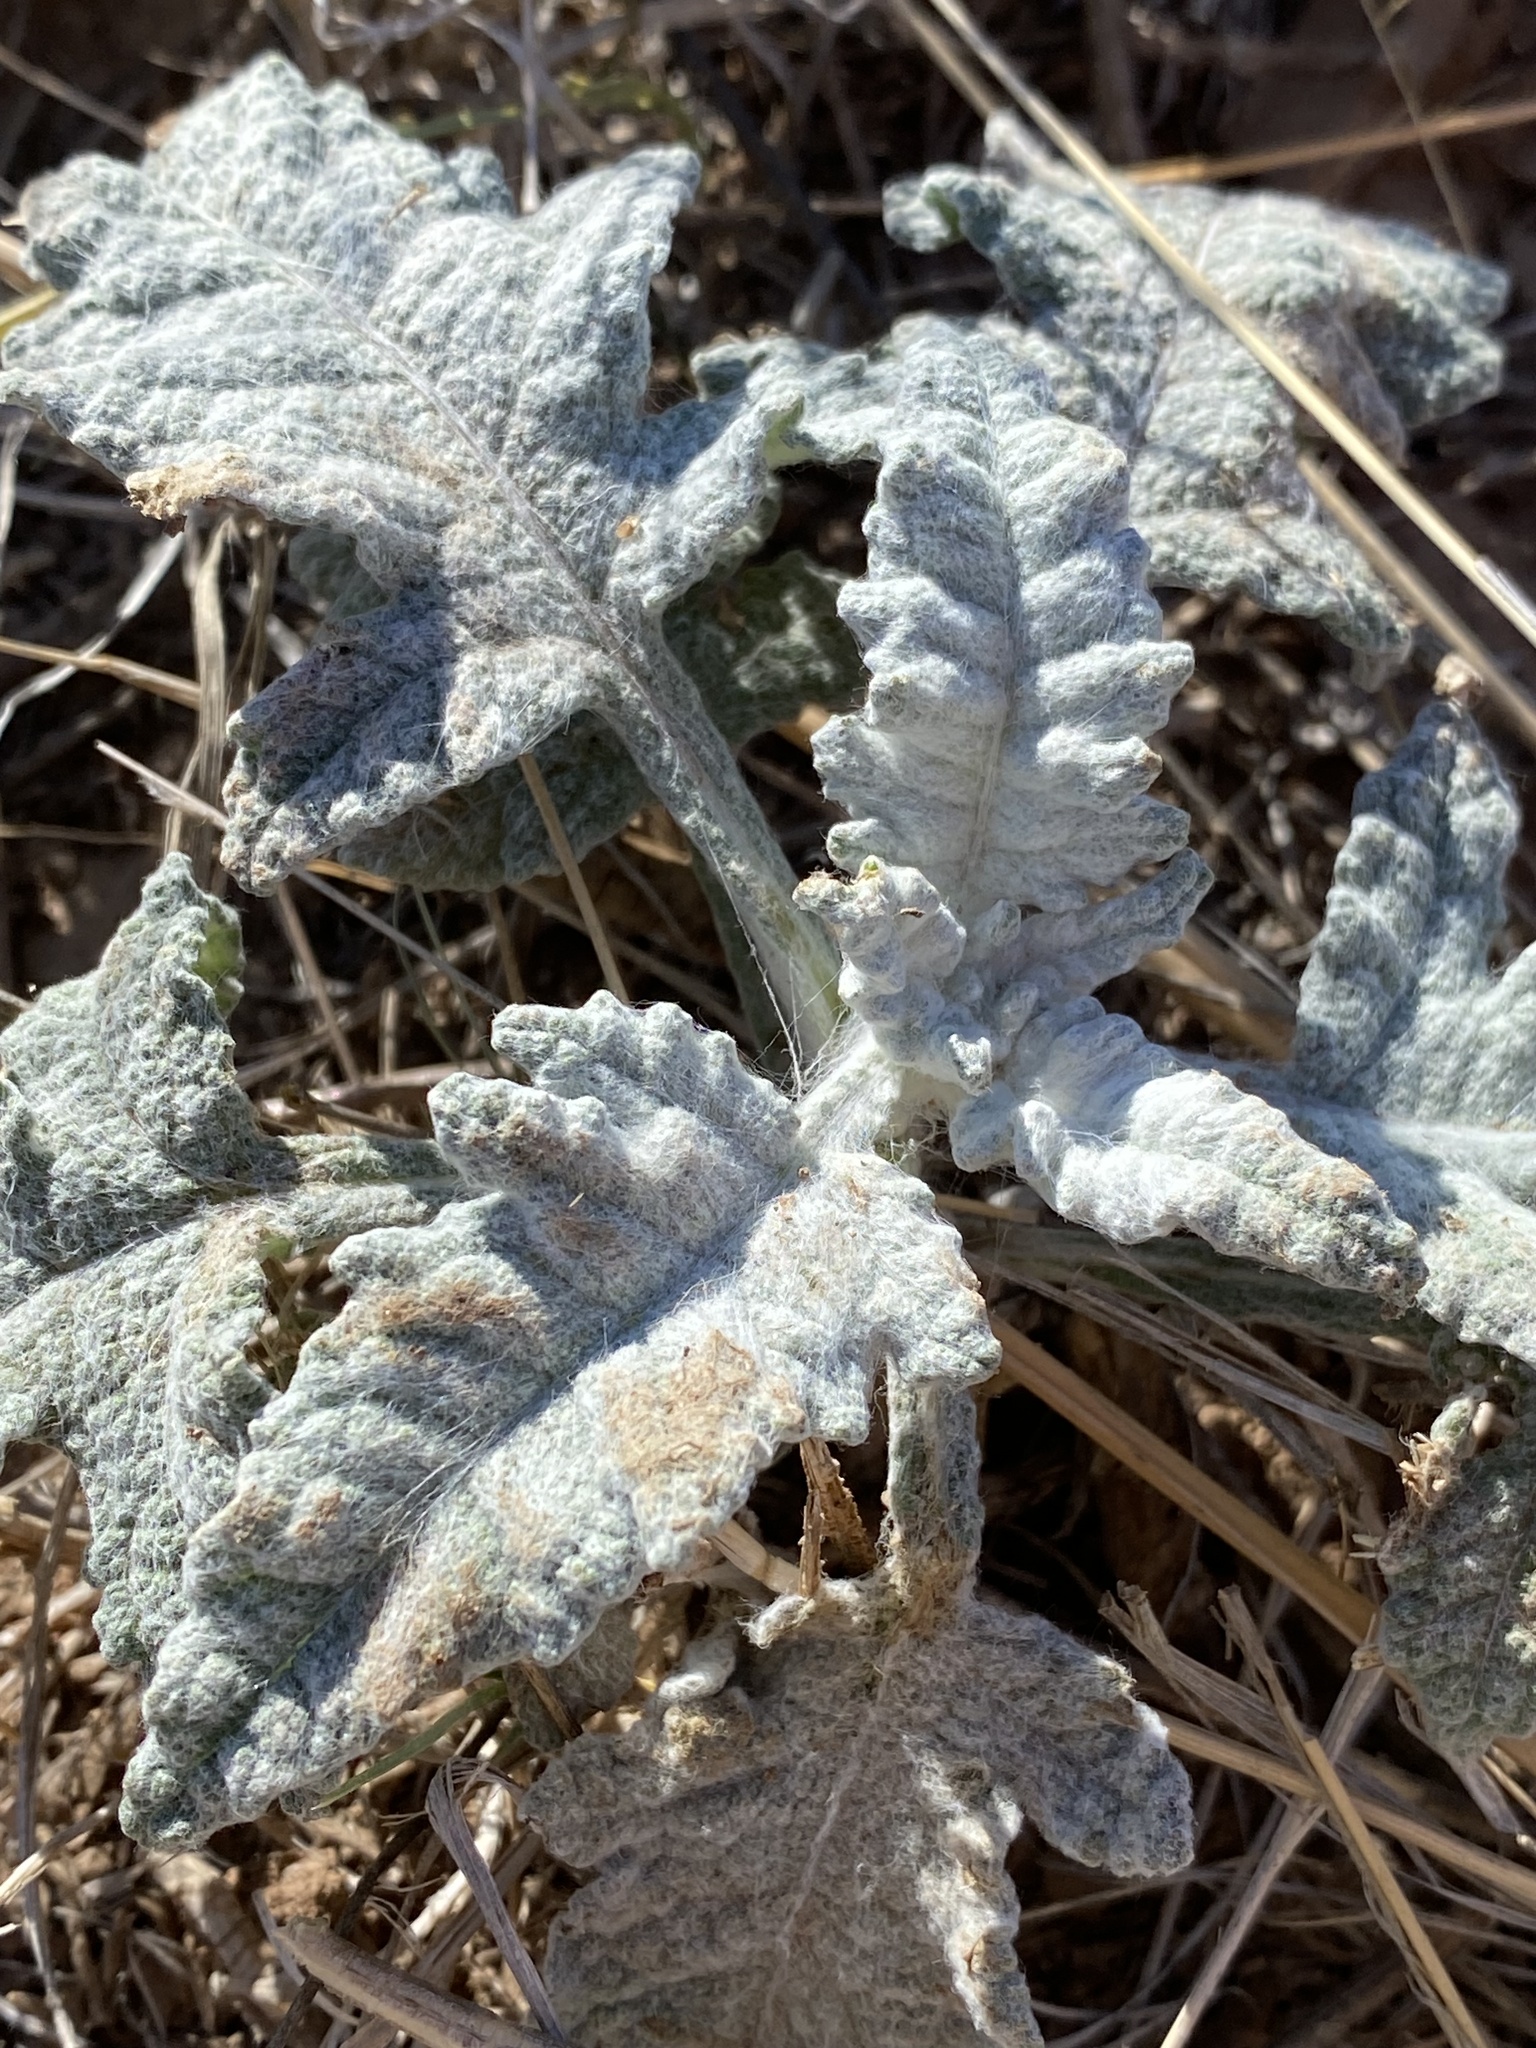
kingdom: Plantae
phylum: Tracheophyta
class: Magnoliopsida
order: Asterales
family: Asteraceae
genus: Euphrosyne
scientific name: Euphrosyne dealbata
